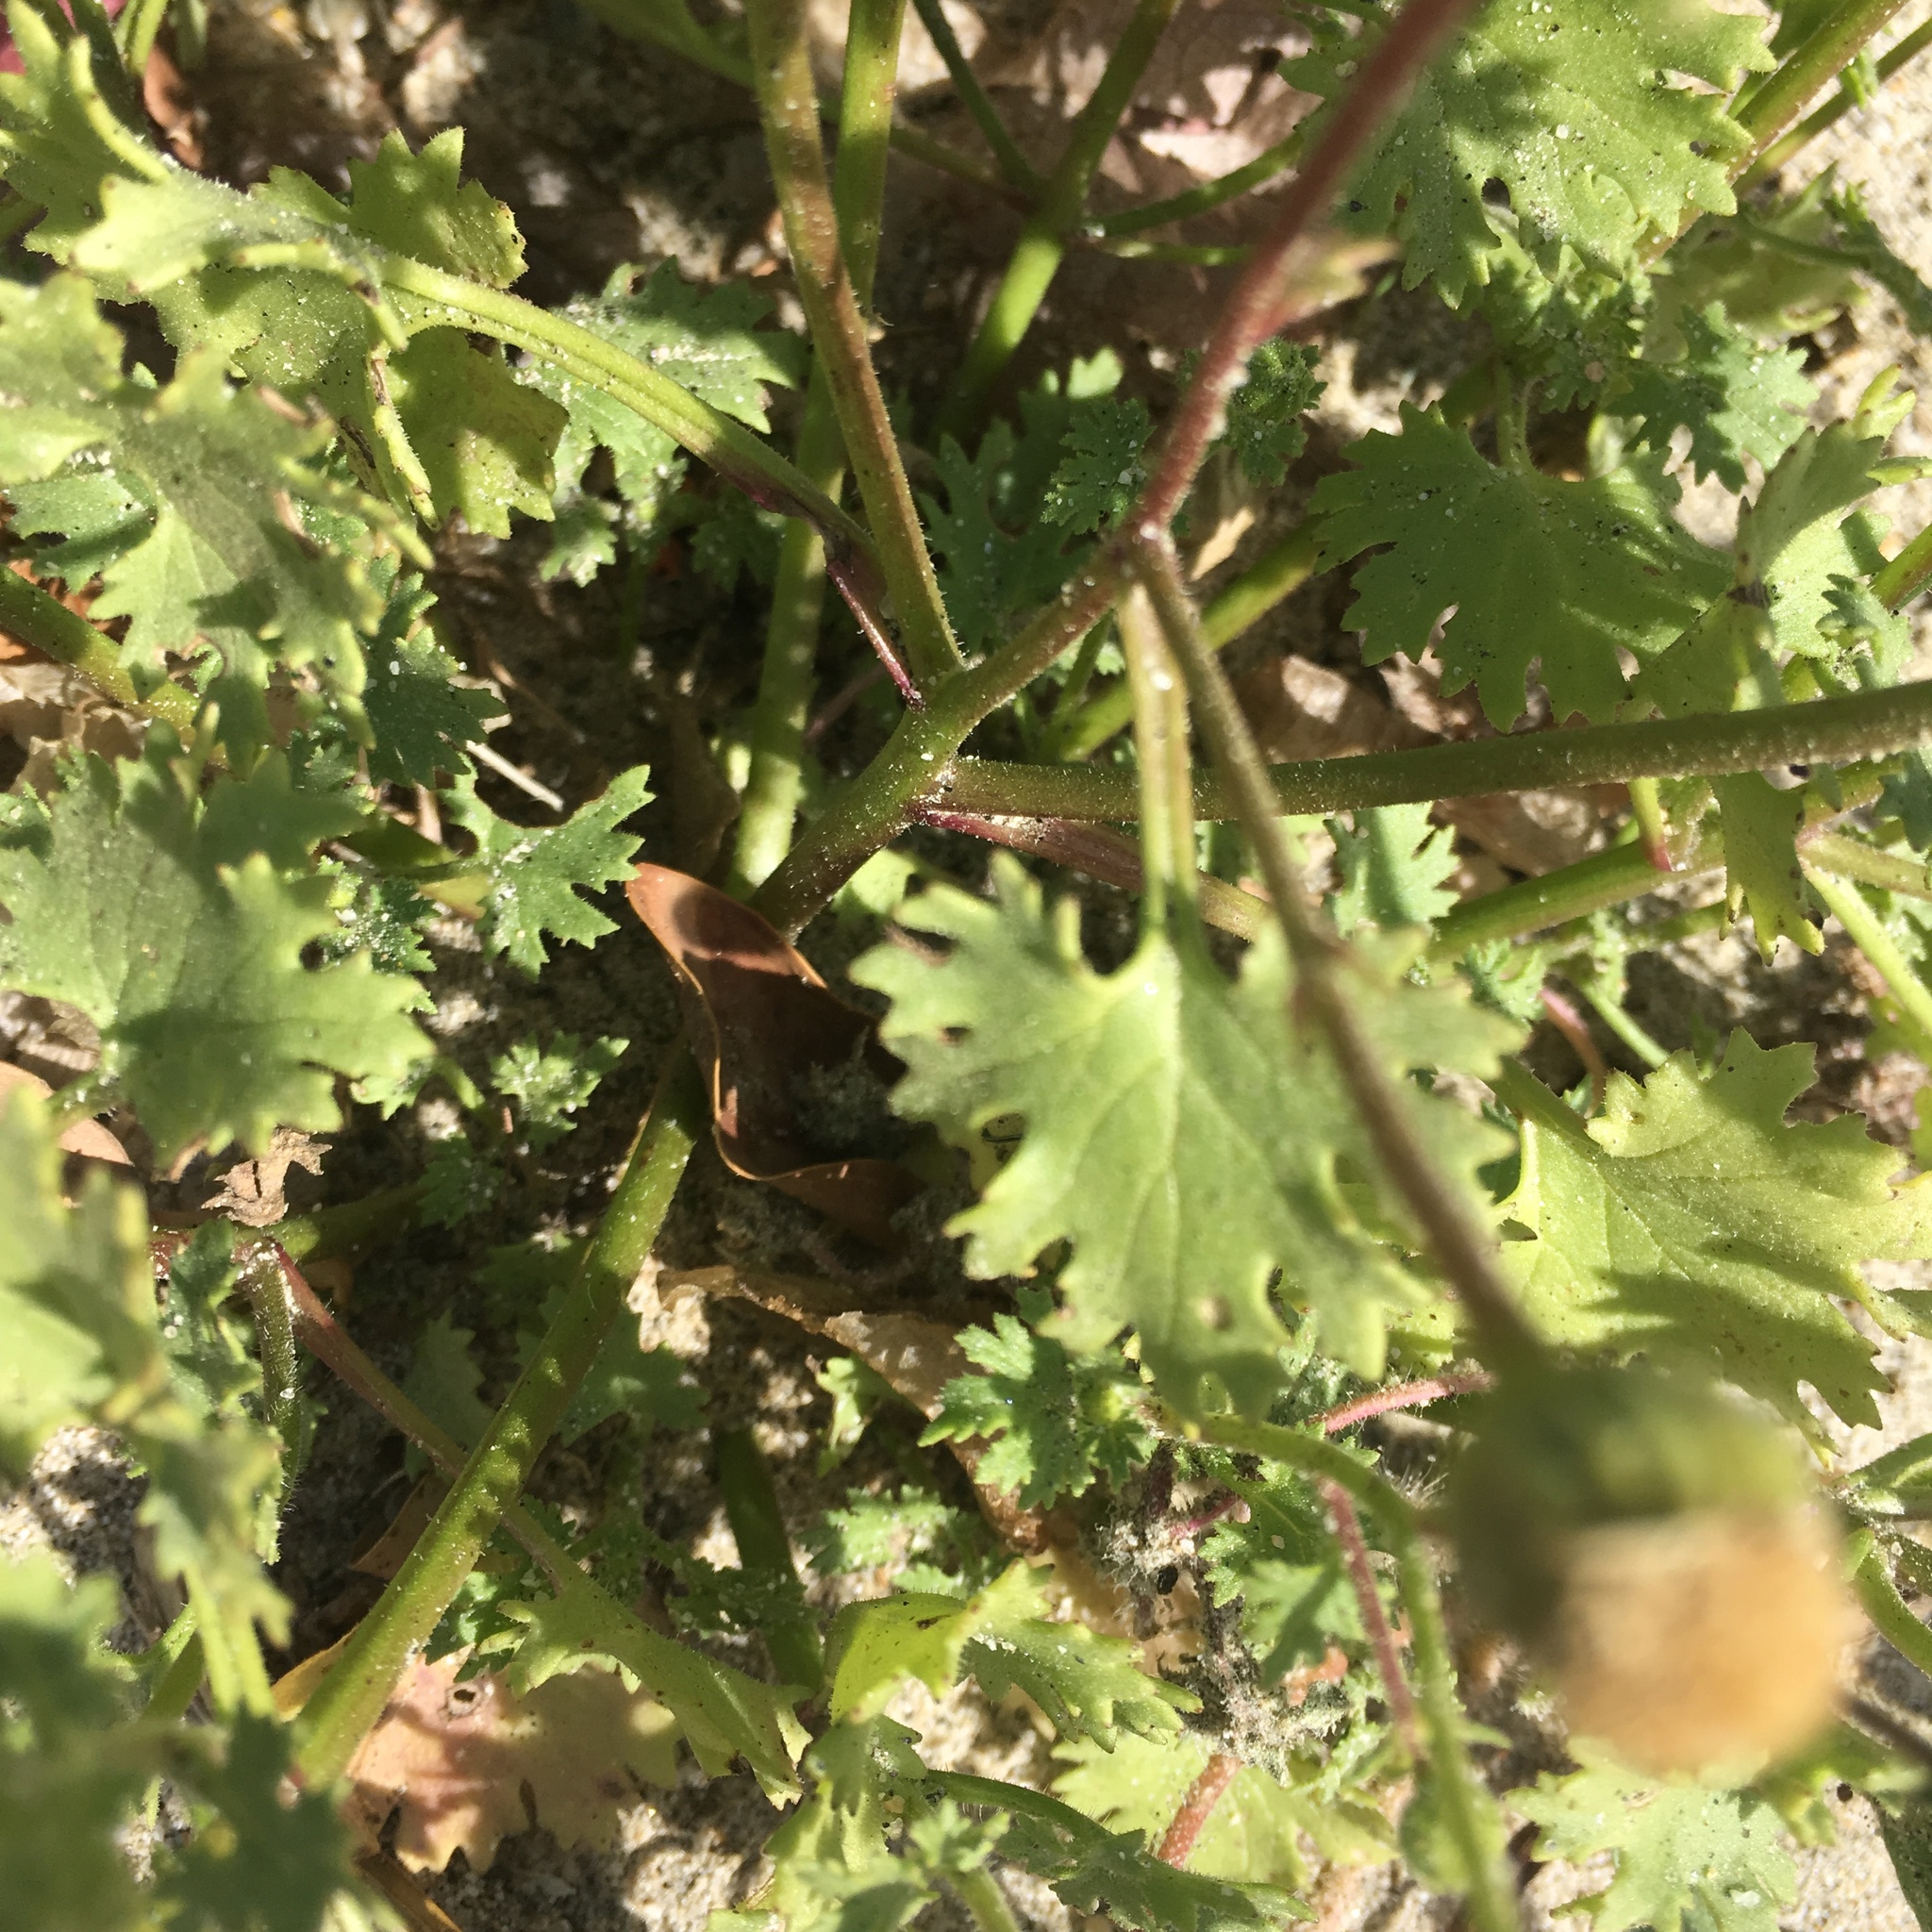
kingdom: Plantae
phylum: Tracheophyta
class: Magnoliopsida
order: Asterales
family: Asteraceae
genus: Laphamia
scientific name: Laphamia emoryi
